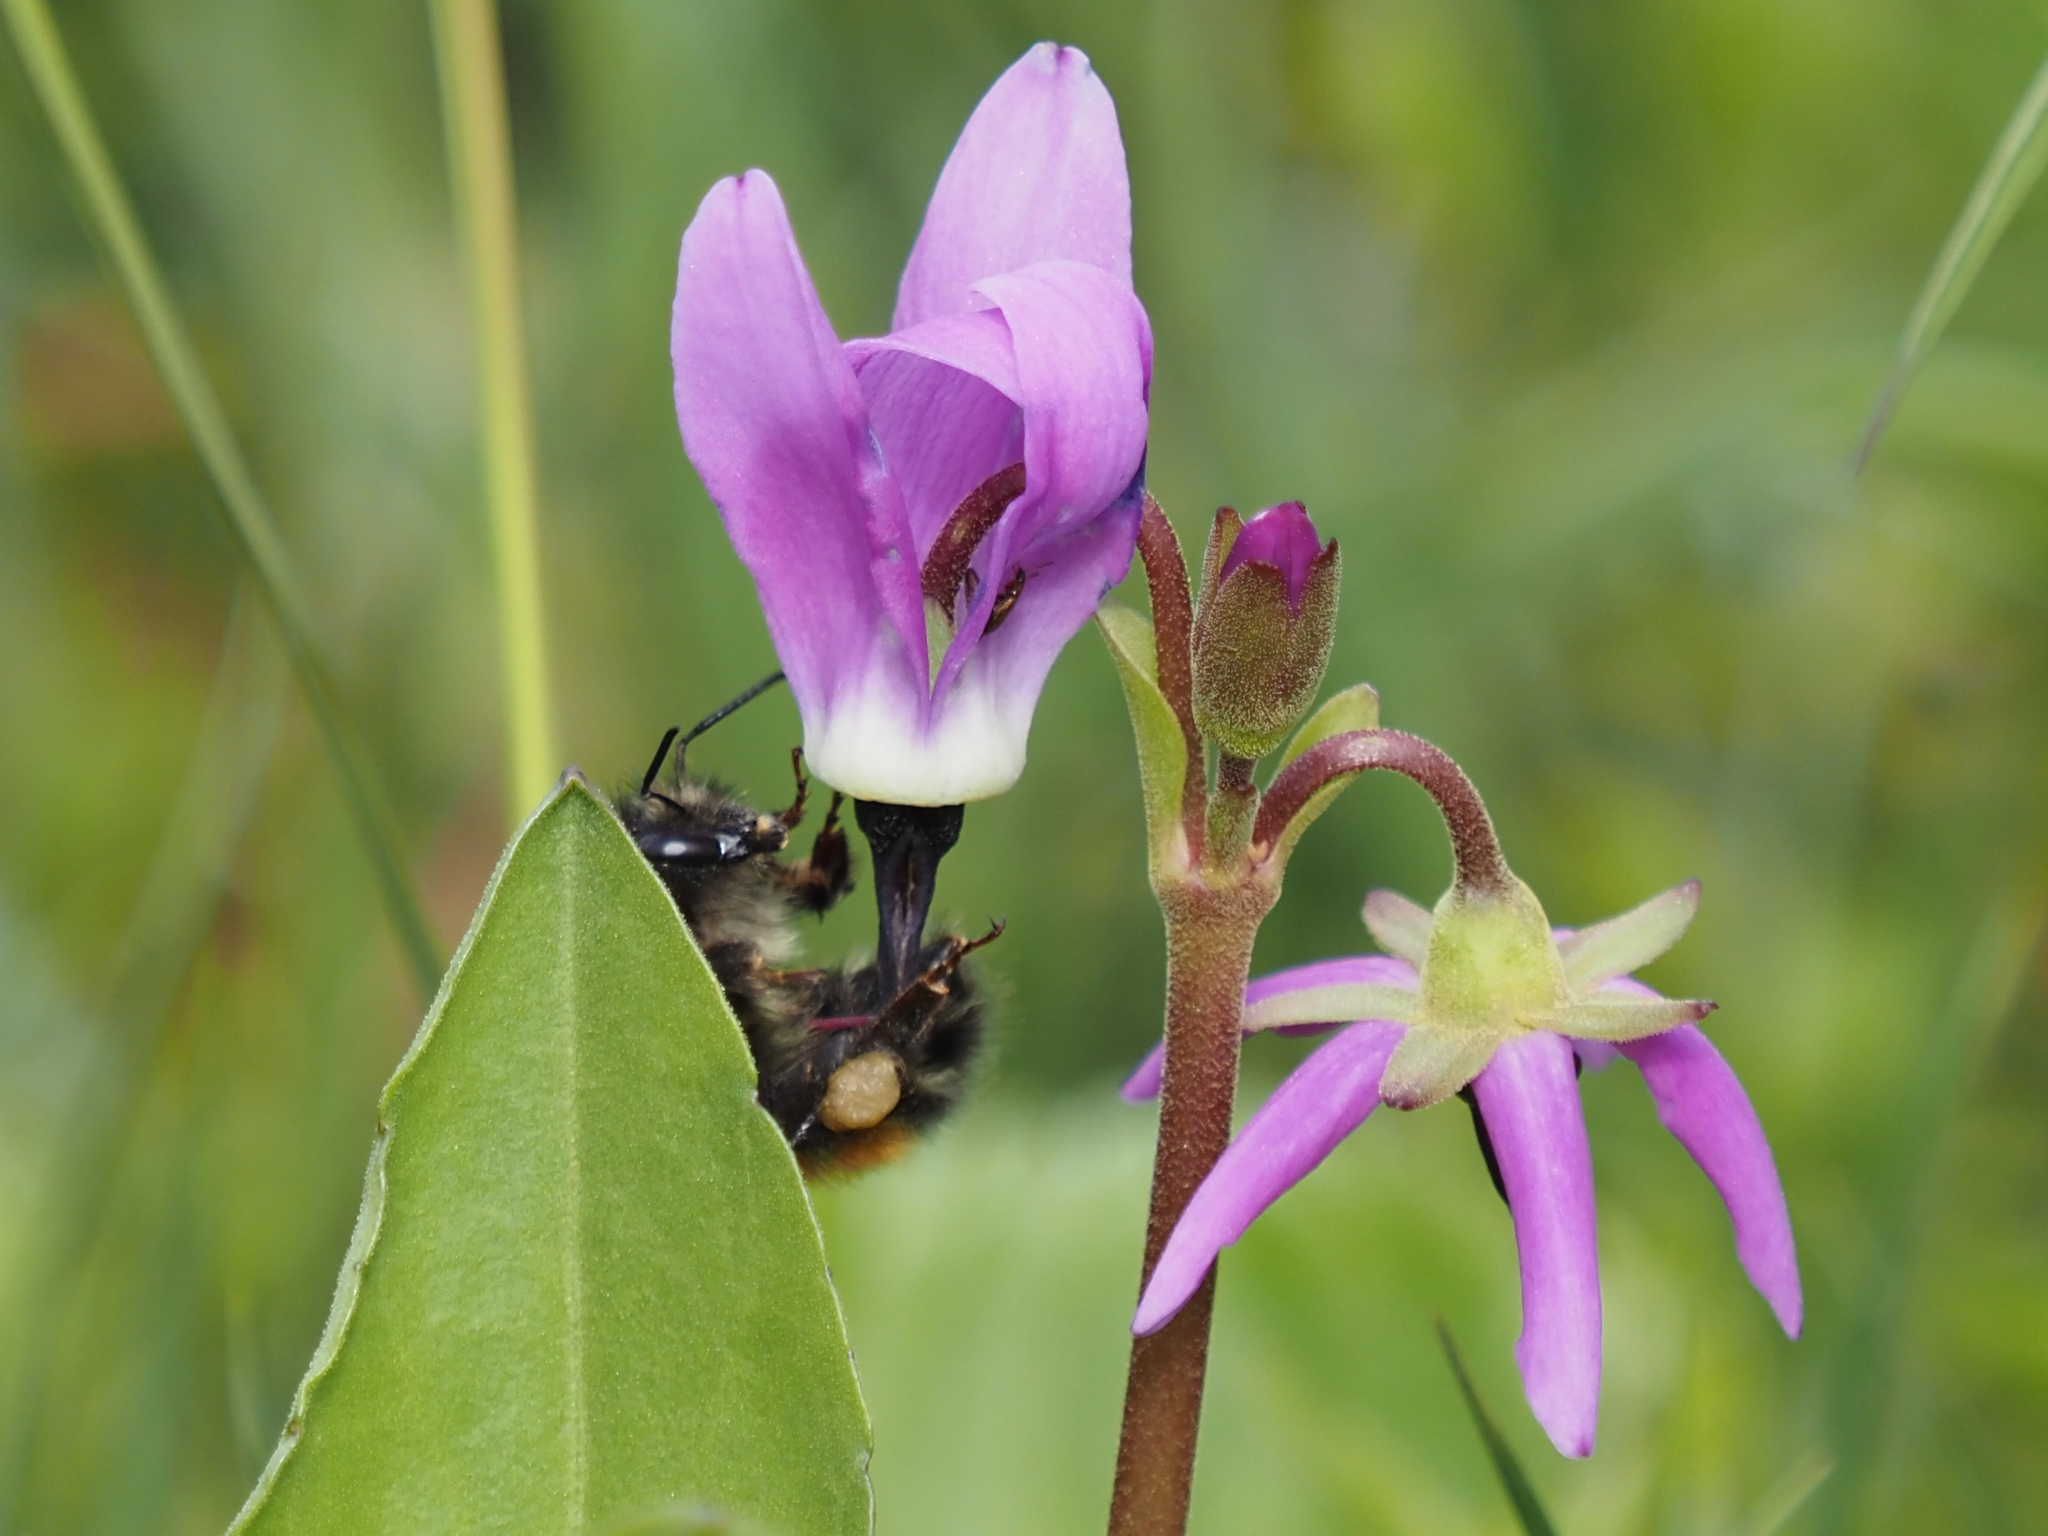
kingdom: Animalia
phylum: Arthropoda
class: Insecta
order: Hymenoptera
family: Apidae
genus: Bombus
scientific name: Bombus melanopygus
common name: Black tail bumble bee
